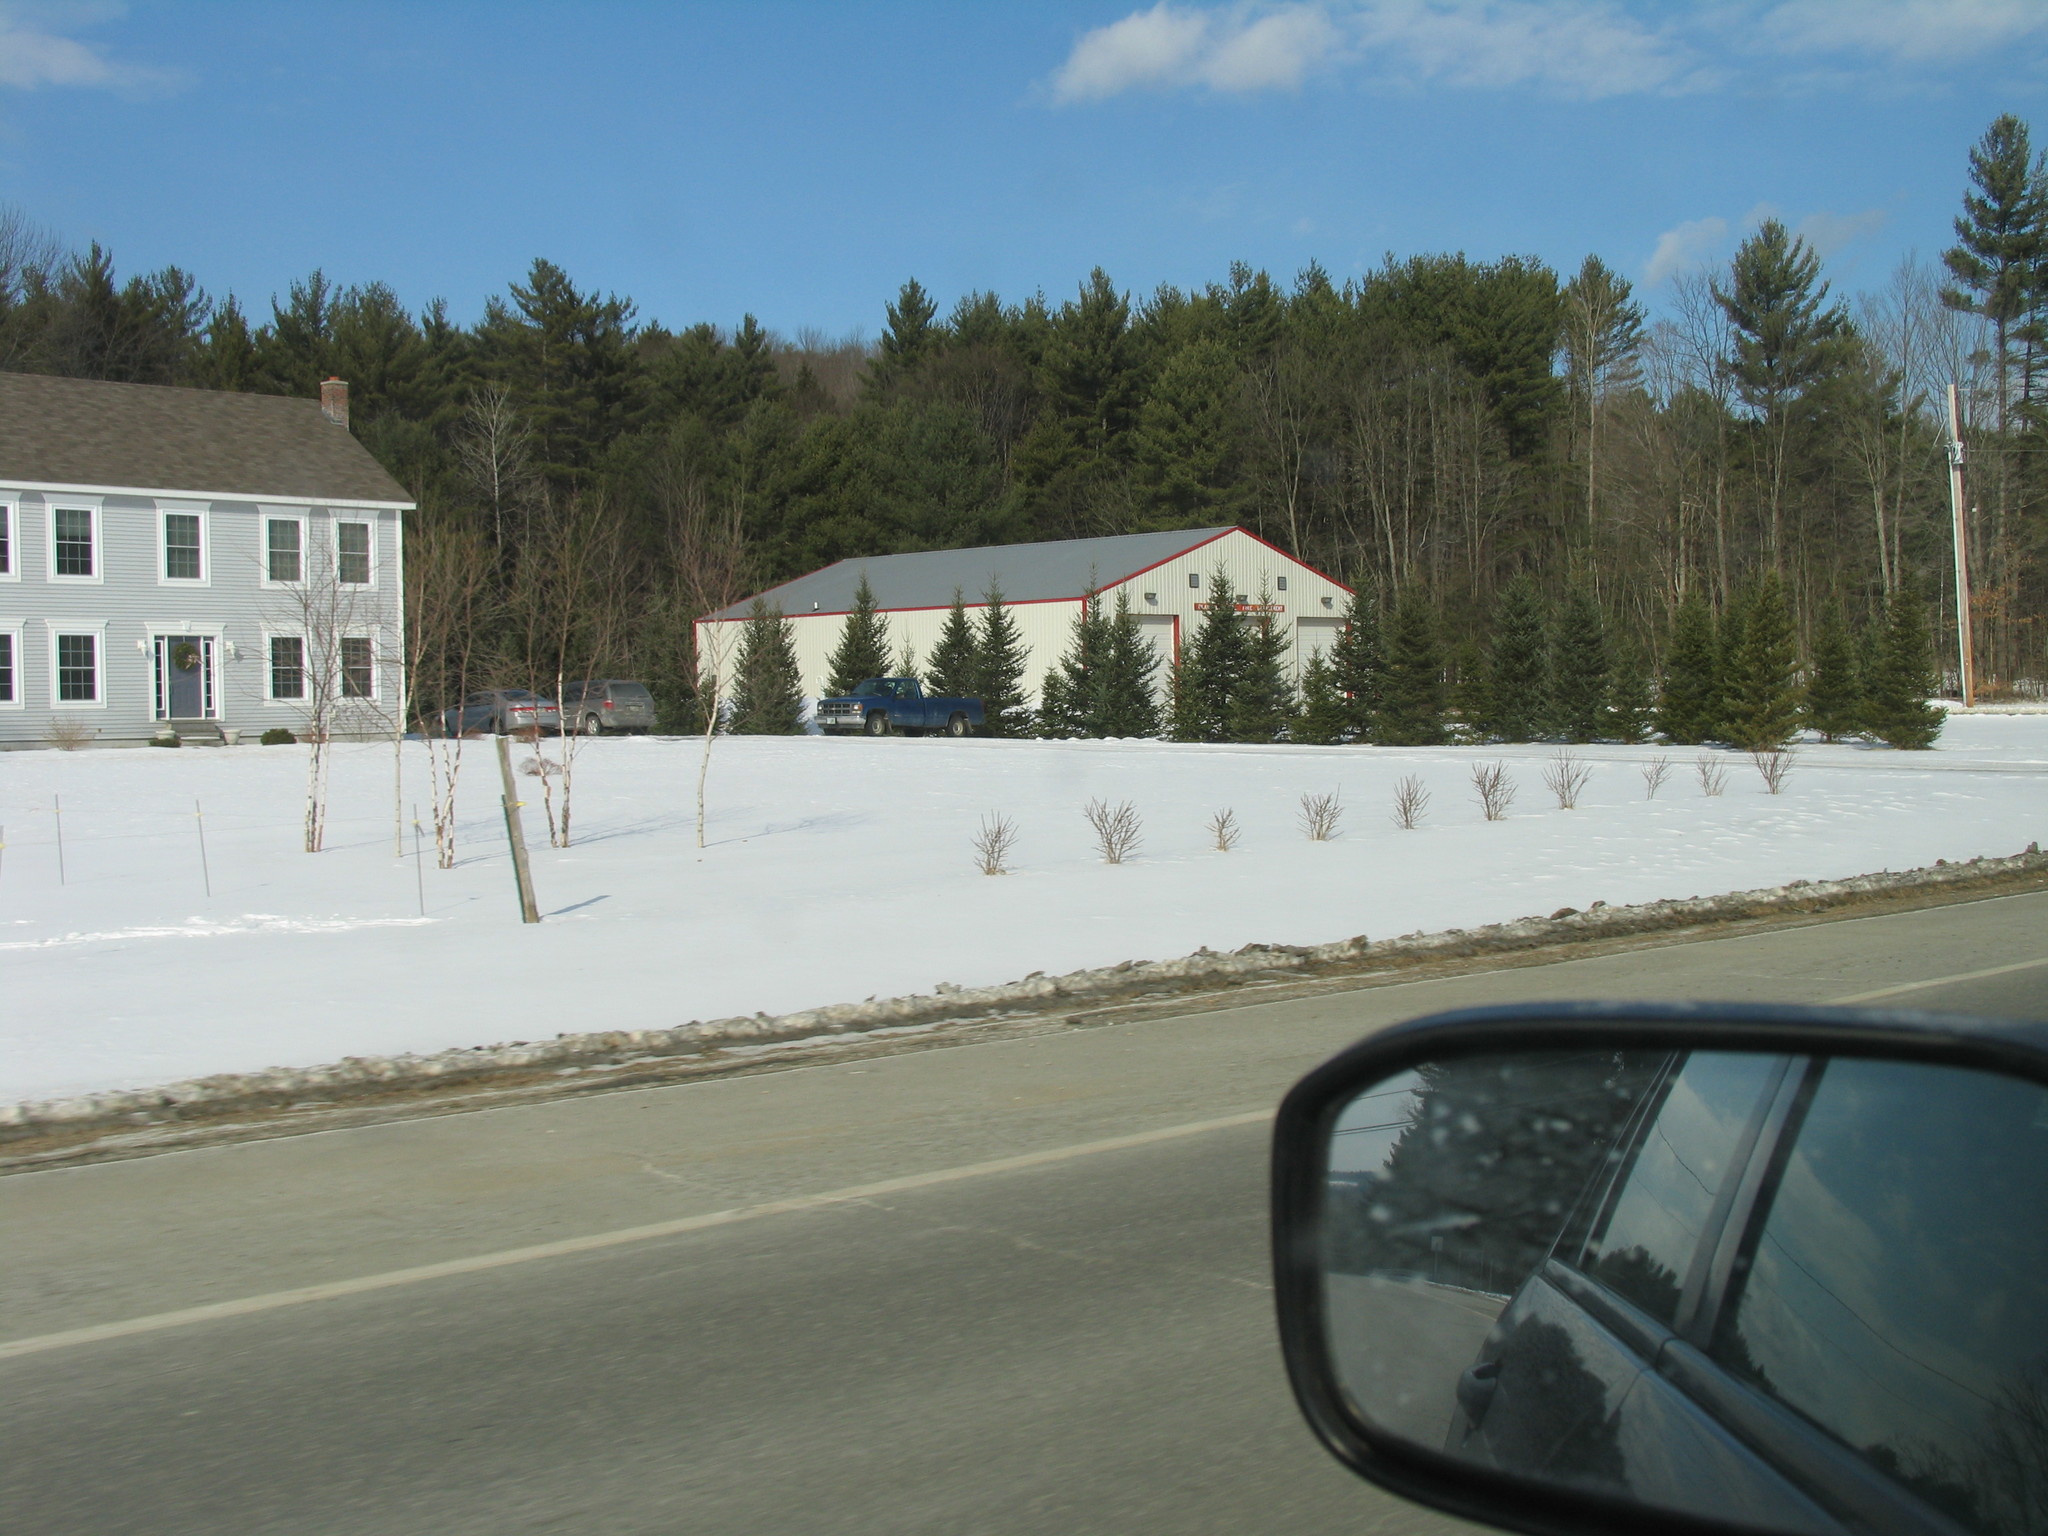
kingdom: Plantae
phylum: Tracheophyta
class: Pinopsida
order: Pinales
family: Pinaceae
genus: Pinus
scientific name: Pinus strobus
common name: Weymouth pine
